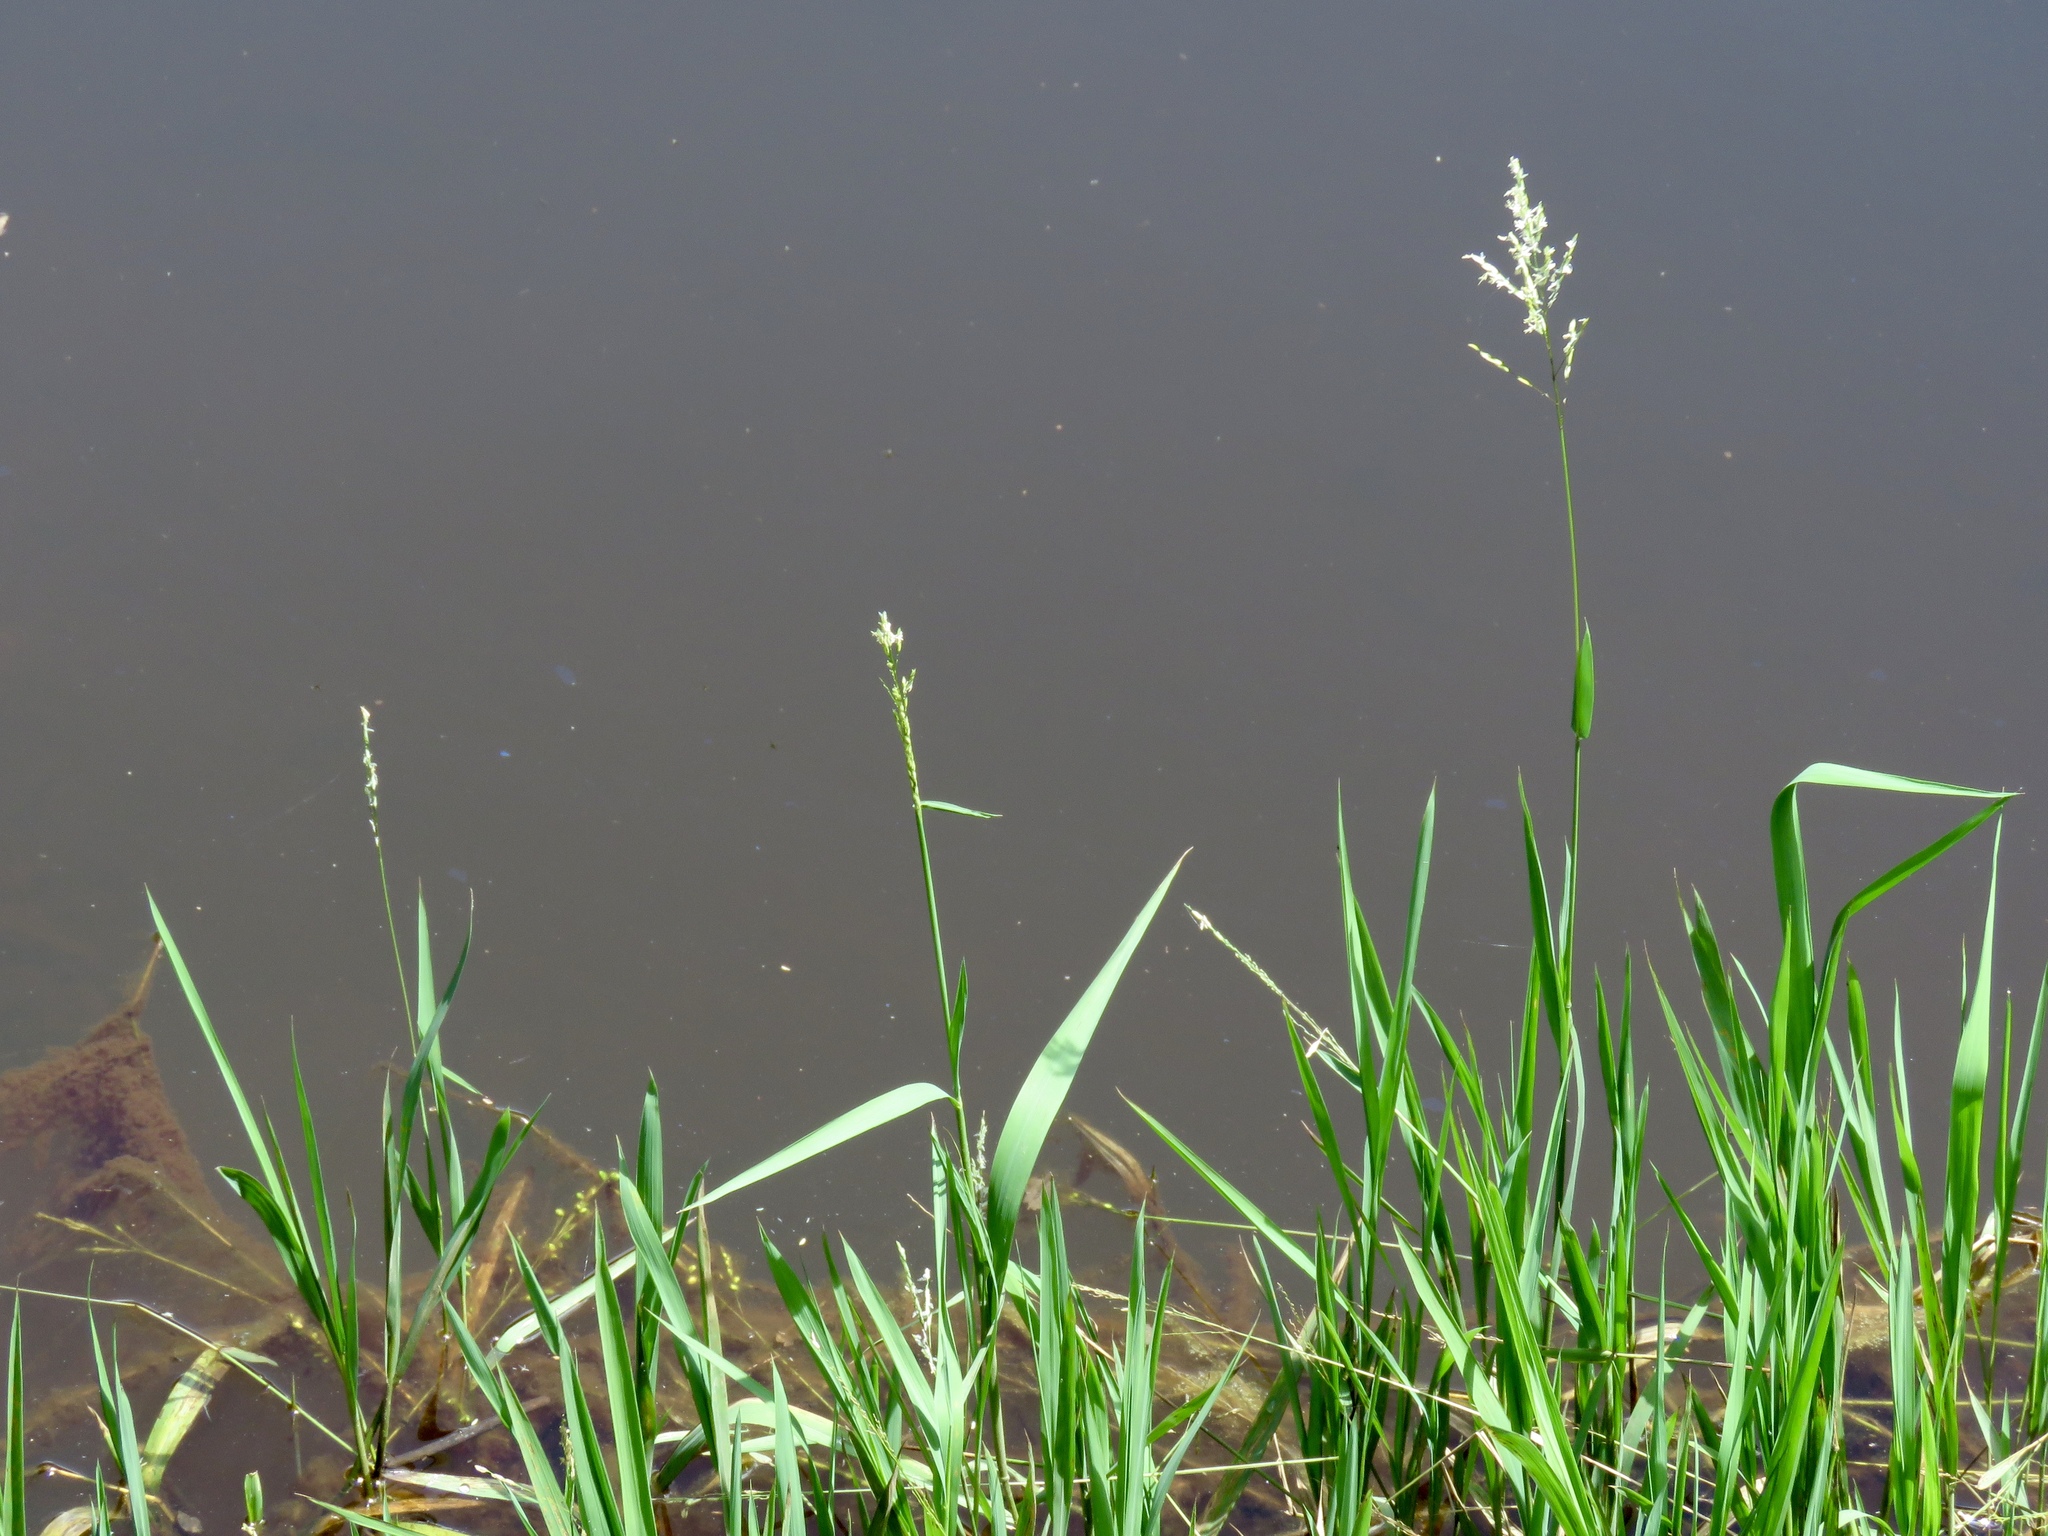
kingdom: Plantae
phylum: Tracheophyta
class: Liliopsida
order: Poales
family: Poaceae
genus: Leersia
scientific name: Leersia hexandra
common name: Southern cut grass
